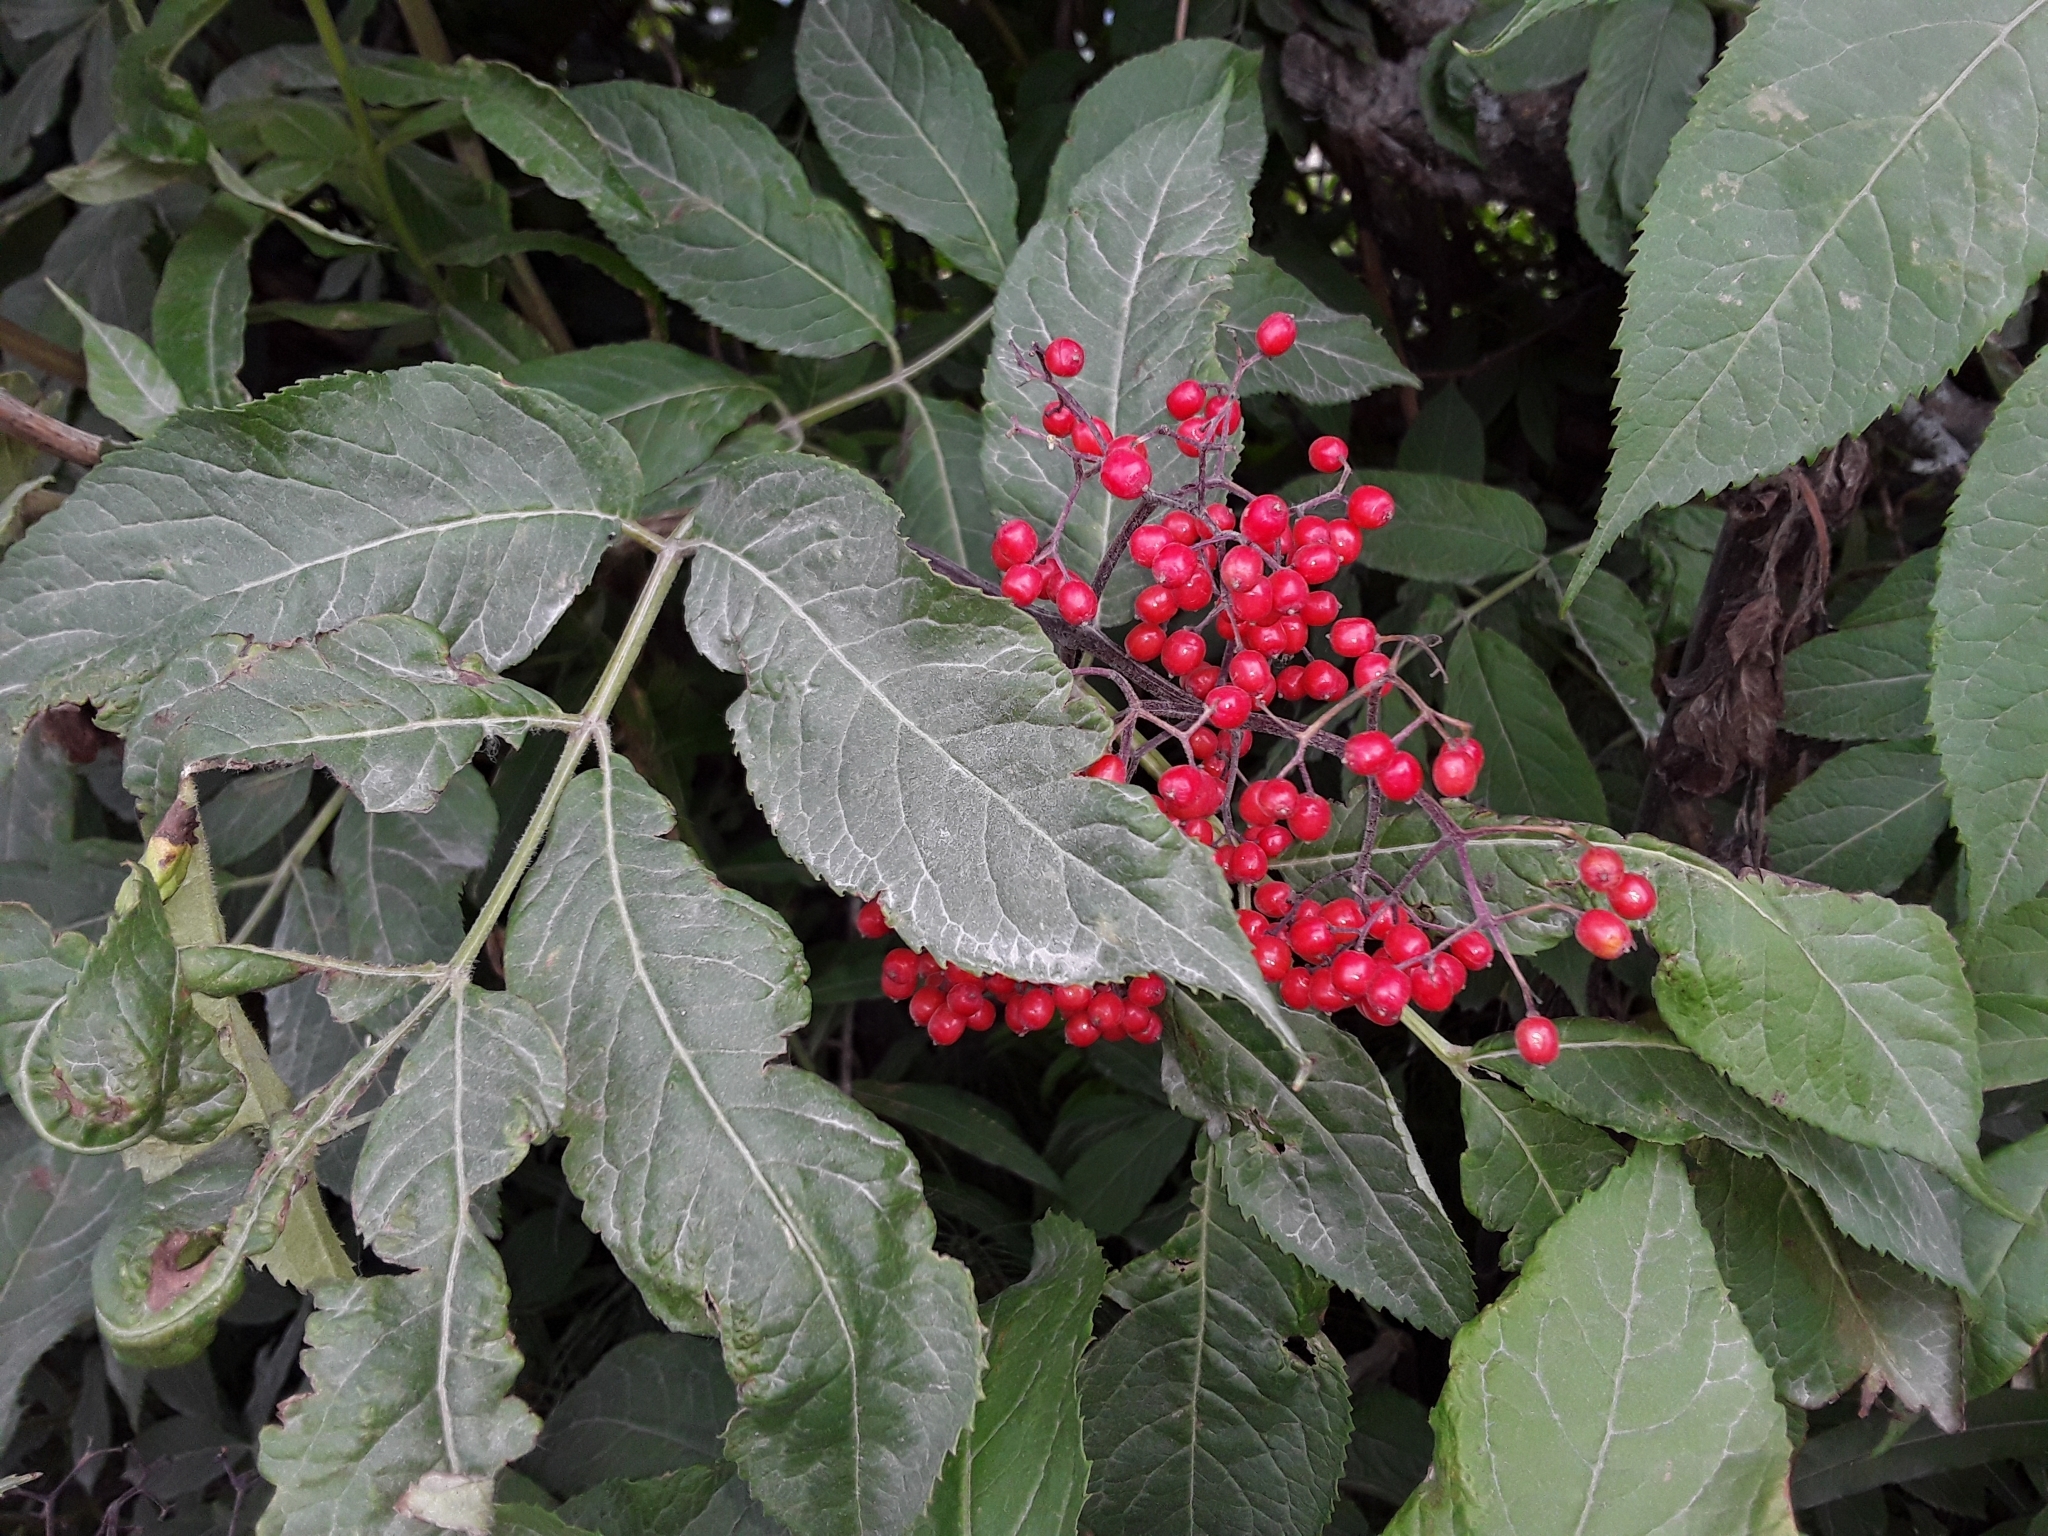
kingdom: Plantae
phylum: Tracheophyta
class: Magnoliopsida
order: Dipsacales
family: Viburnaceae
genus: Sambucus
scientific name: Sambucus racemosa
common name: Red-berried elder
